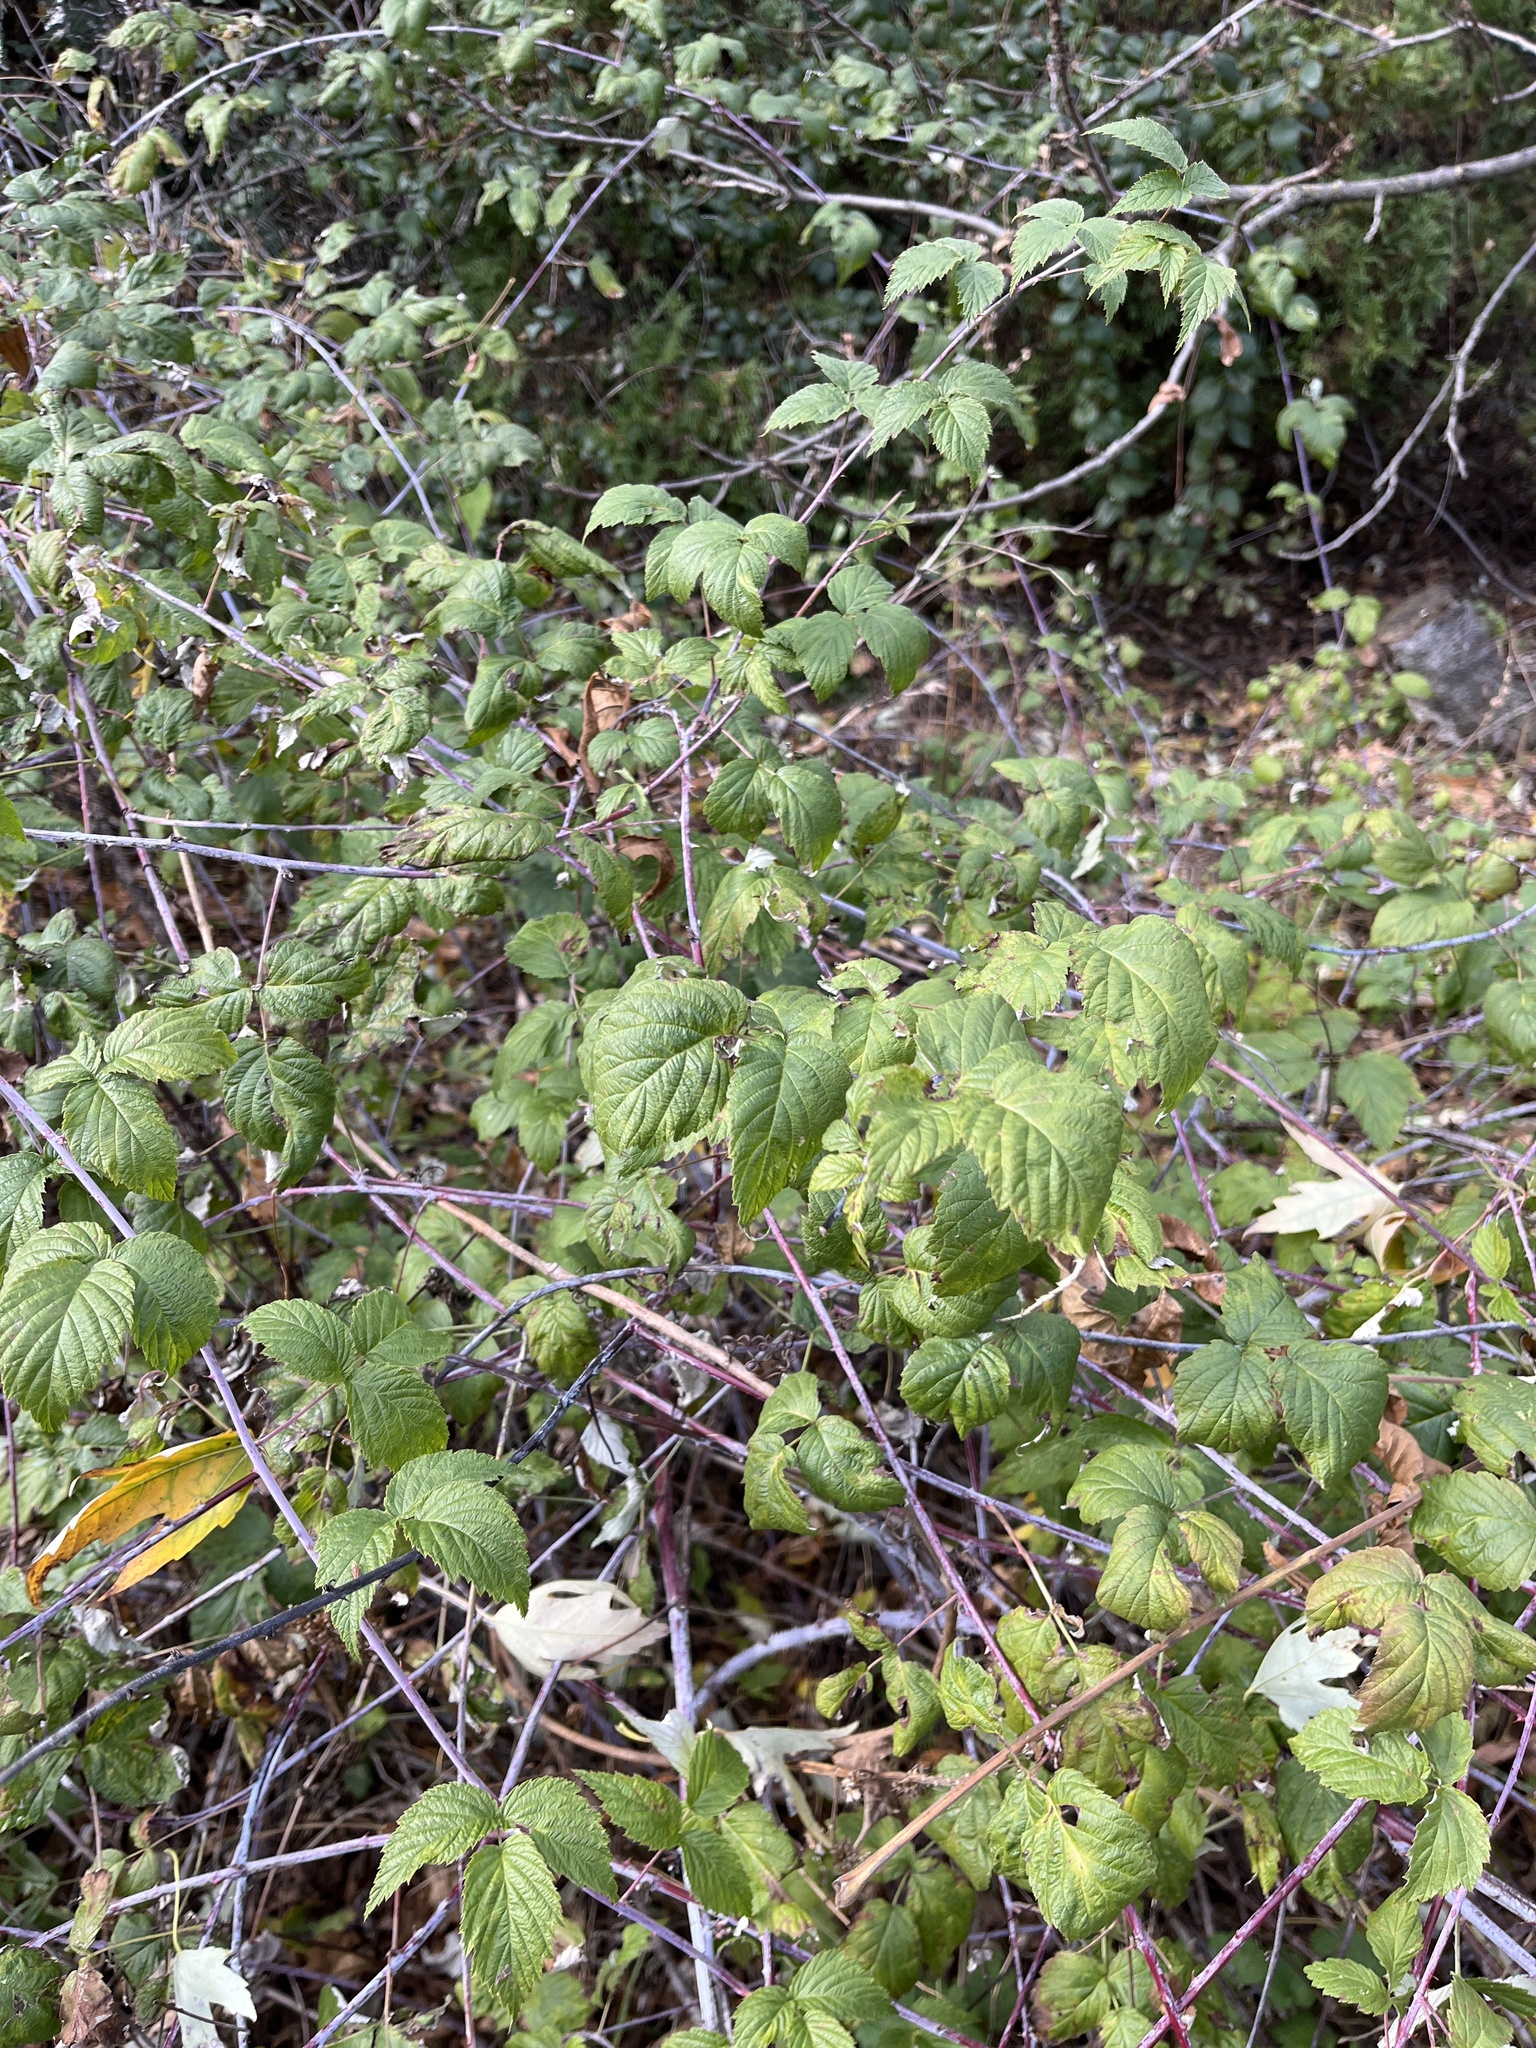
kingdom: Plantae
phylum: Tracheophyta
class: Magnoliopsida
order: Rosales
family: Rosaceae
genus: Rubus
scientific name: Rubus occidentalis
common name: Black raspberry
